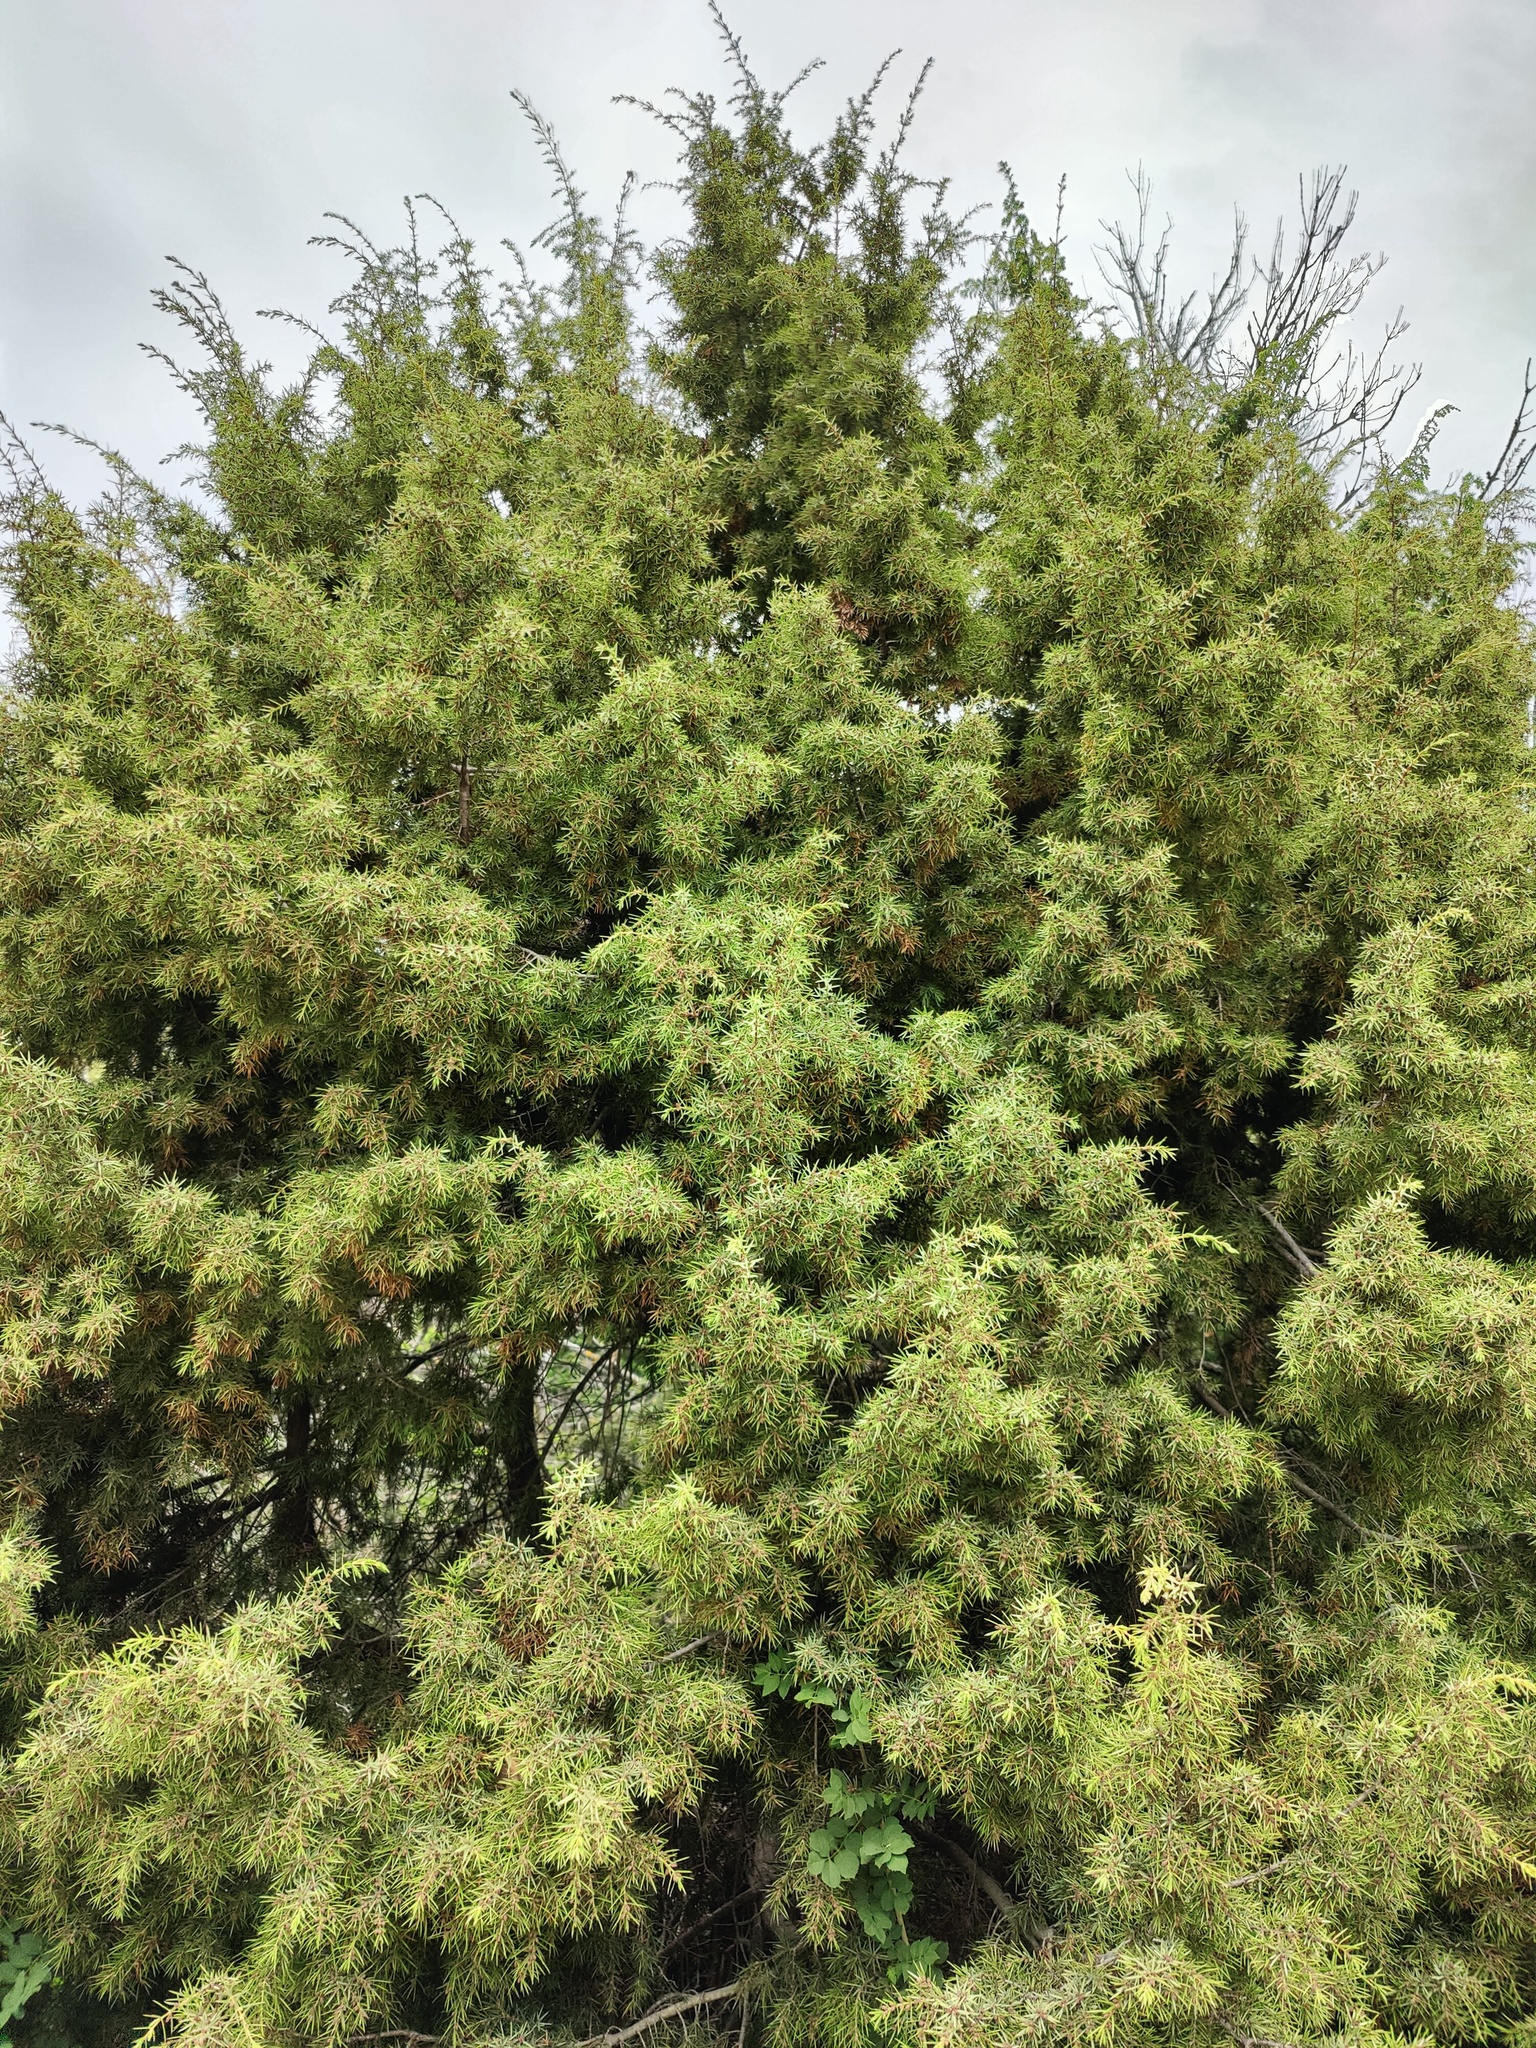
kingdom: Plantae
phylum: Tracheophyta
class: Pinopsida
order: Pinales
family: Cupressaceae
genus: Juniperus
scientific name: Juniperus oxycedrus
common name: Prickly juniper
